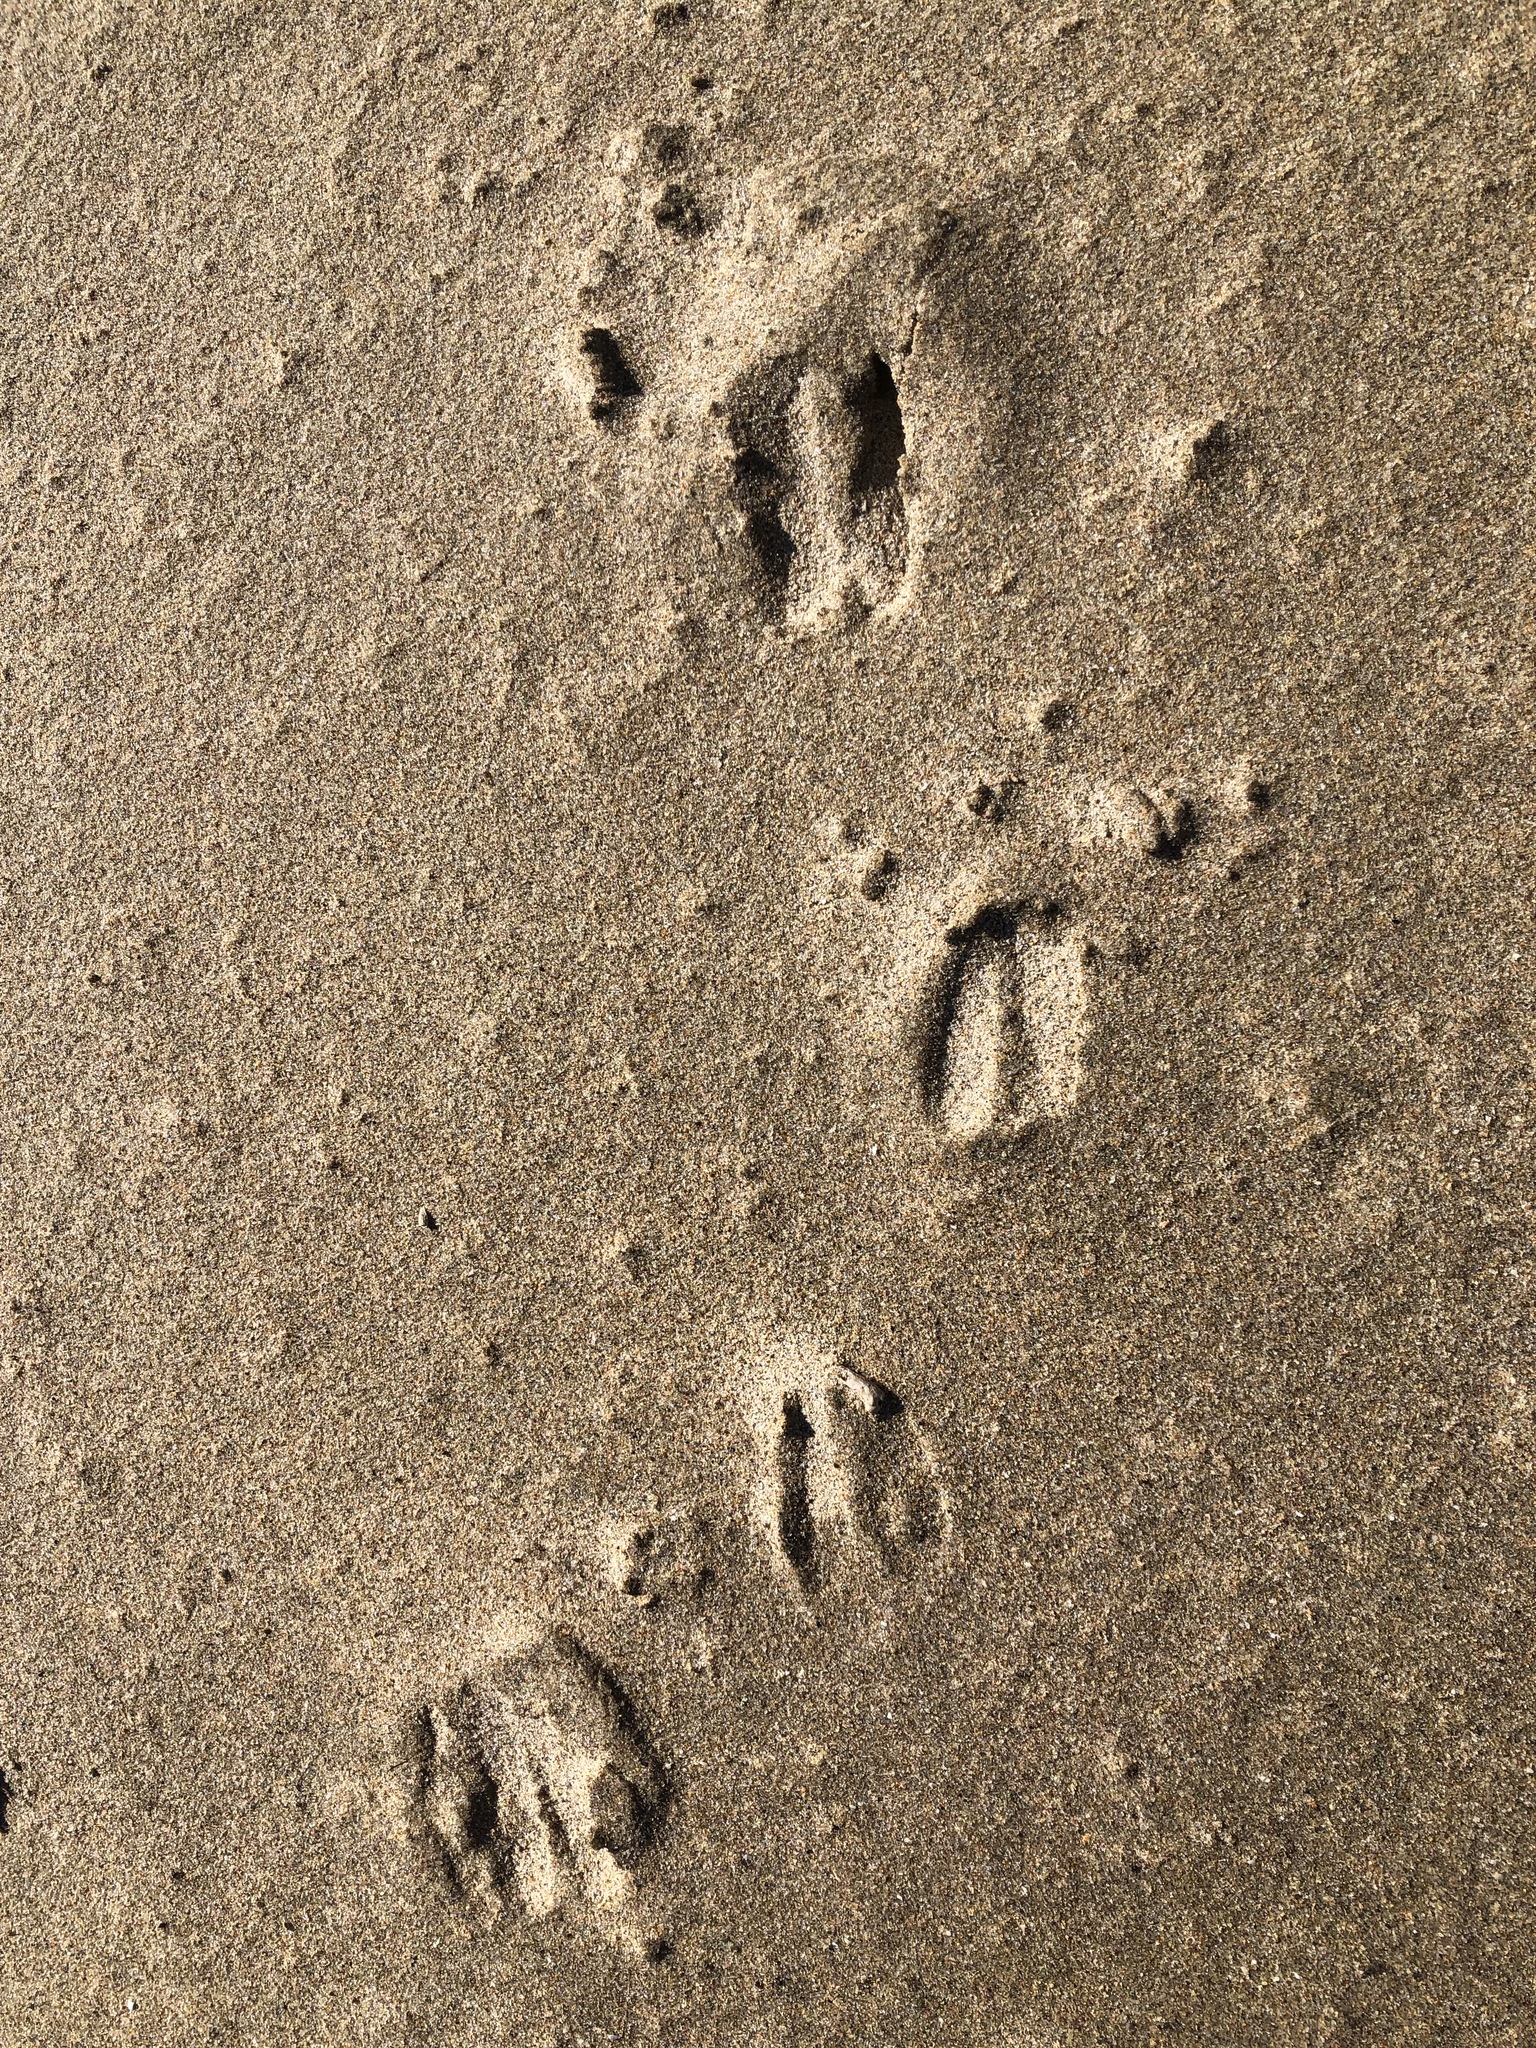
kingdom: Animalia
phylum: Chordata
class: Mammalia
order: Artiodactyla
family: Cervidae
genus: Odocoileus
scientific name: Odocoileus hemionus
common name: Mule deer
